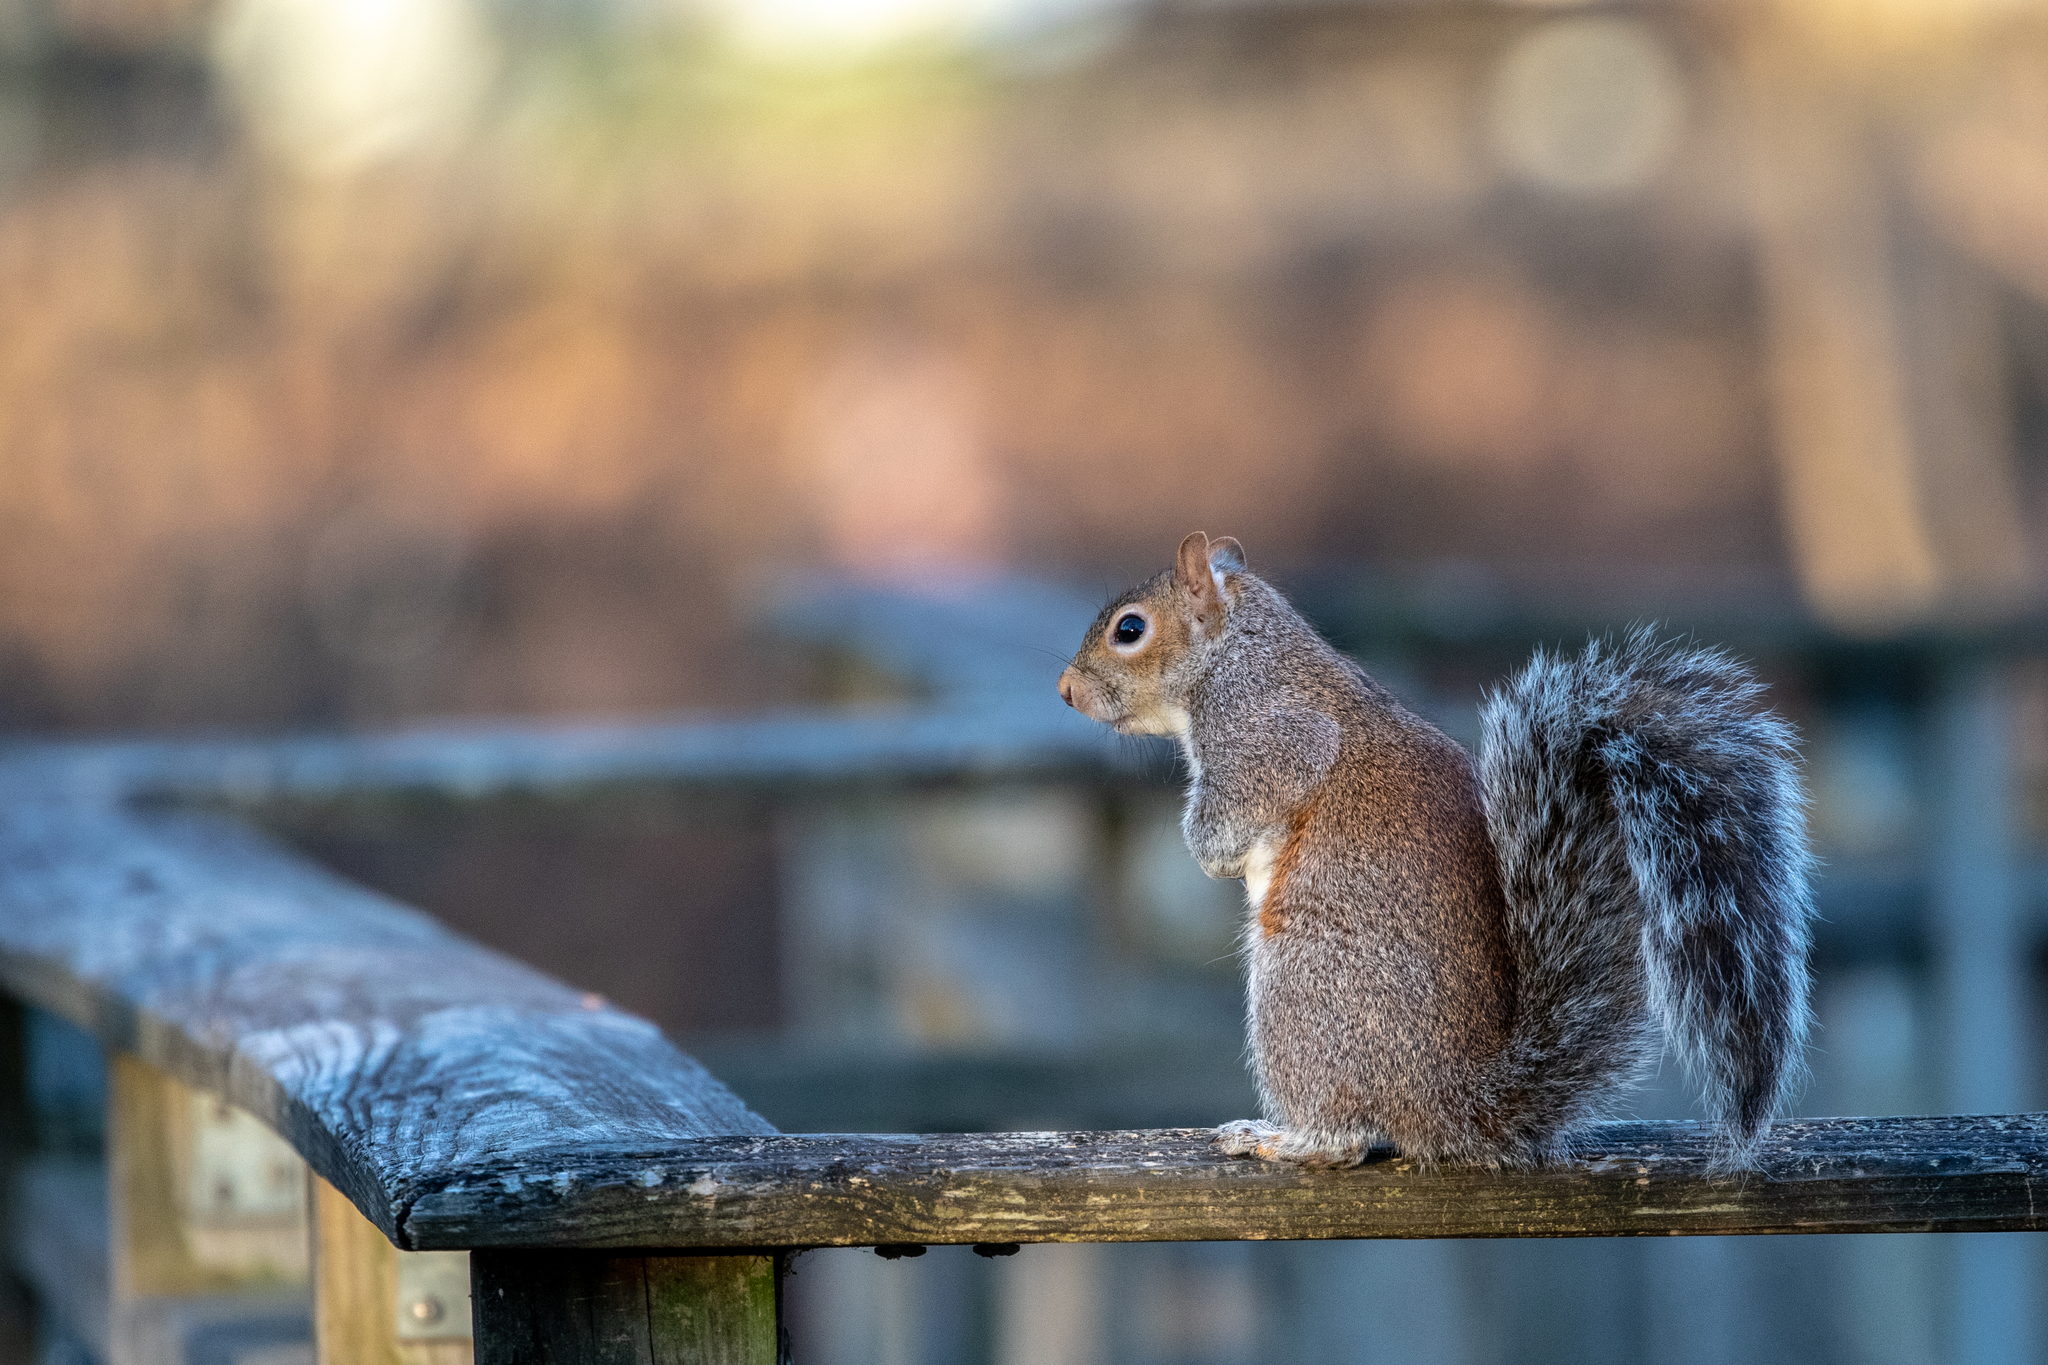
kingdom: Animalia
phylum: Chordata
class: Mammalia
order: Rodentia
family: Sciuridae
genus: Sciurus
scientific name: Sciurus carolinensis
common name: Eastern gray squirrel
